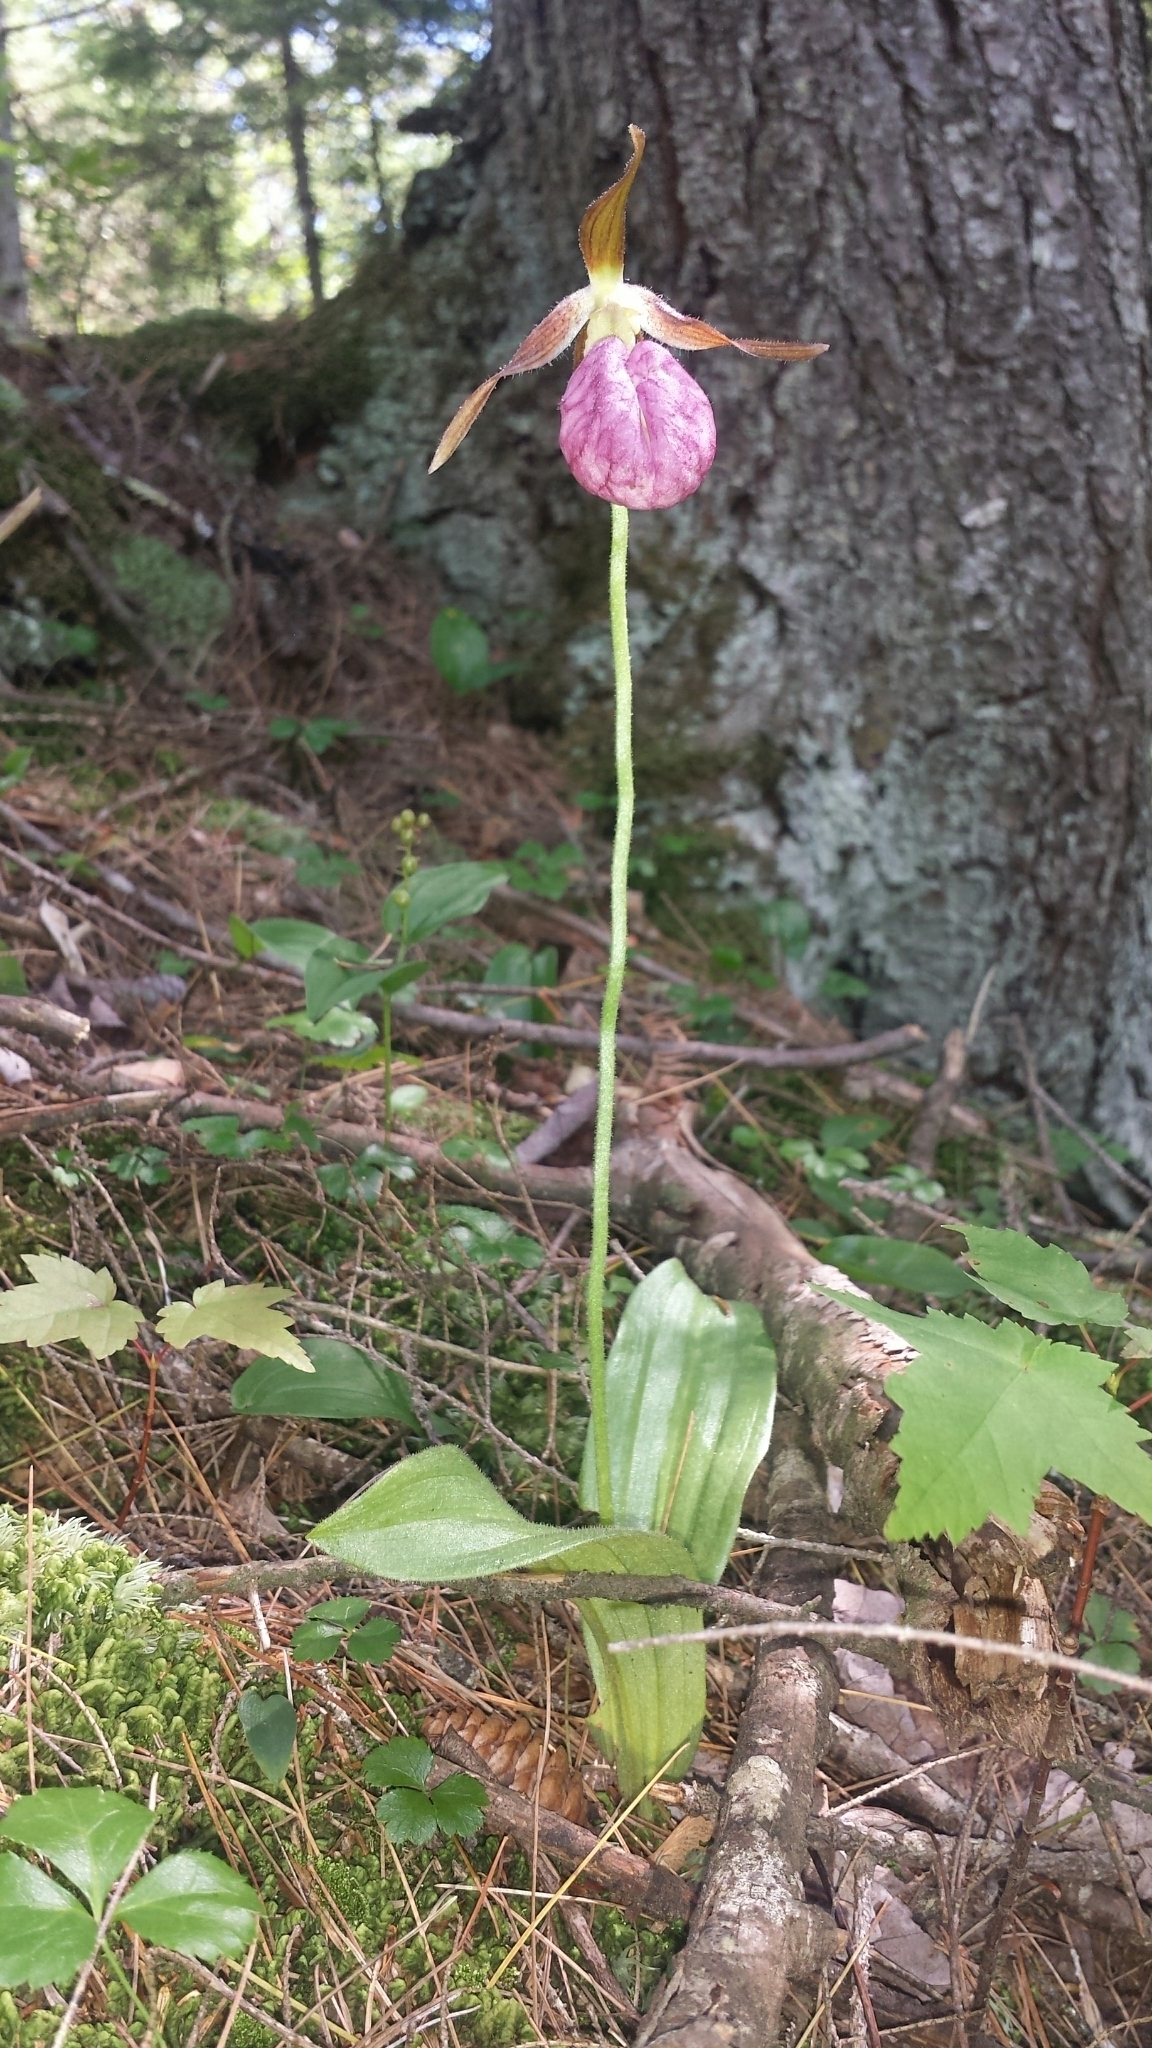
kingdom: Plantae
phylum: Tracheophyta
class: Liliopsida
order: Asparagales
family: Orchidaceae
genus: Cypripedium
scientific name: Cypripedium acaule
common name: Pink lady's-slipper
